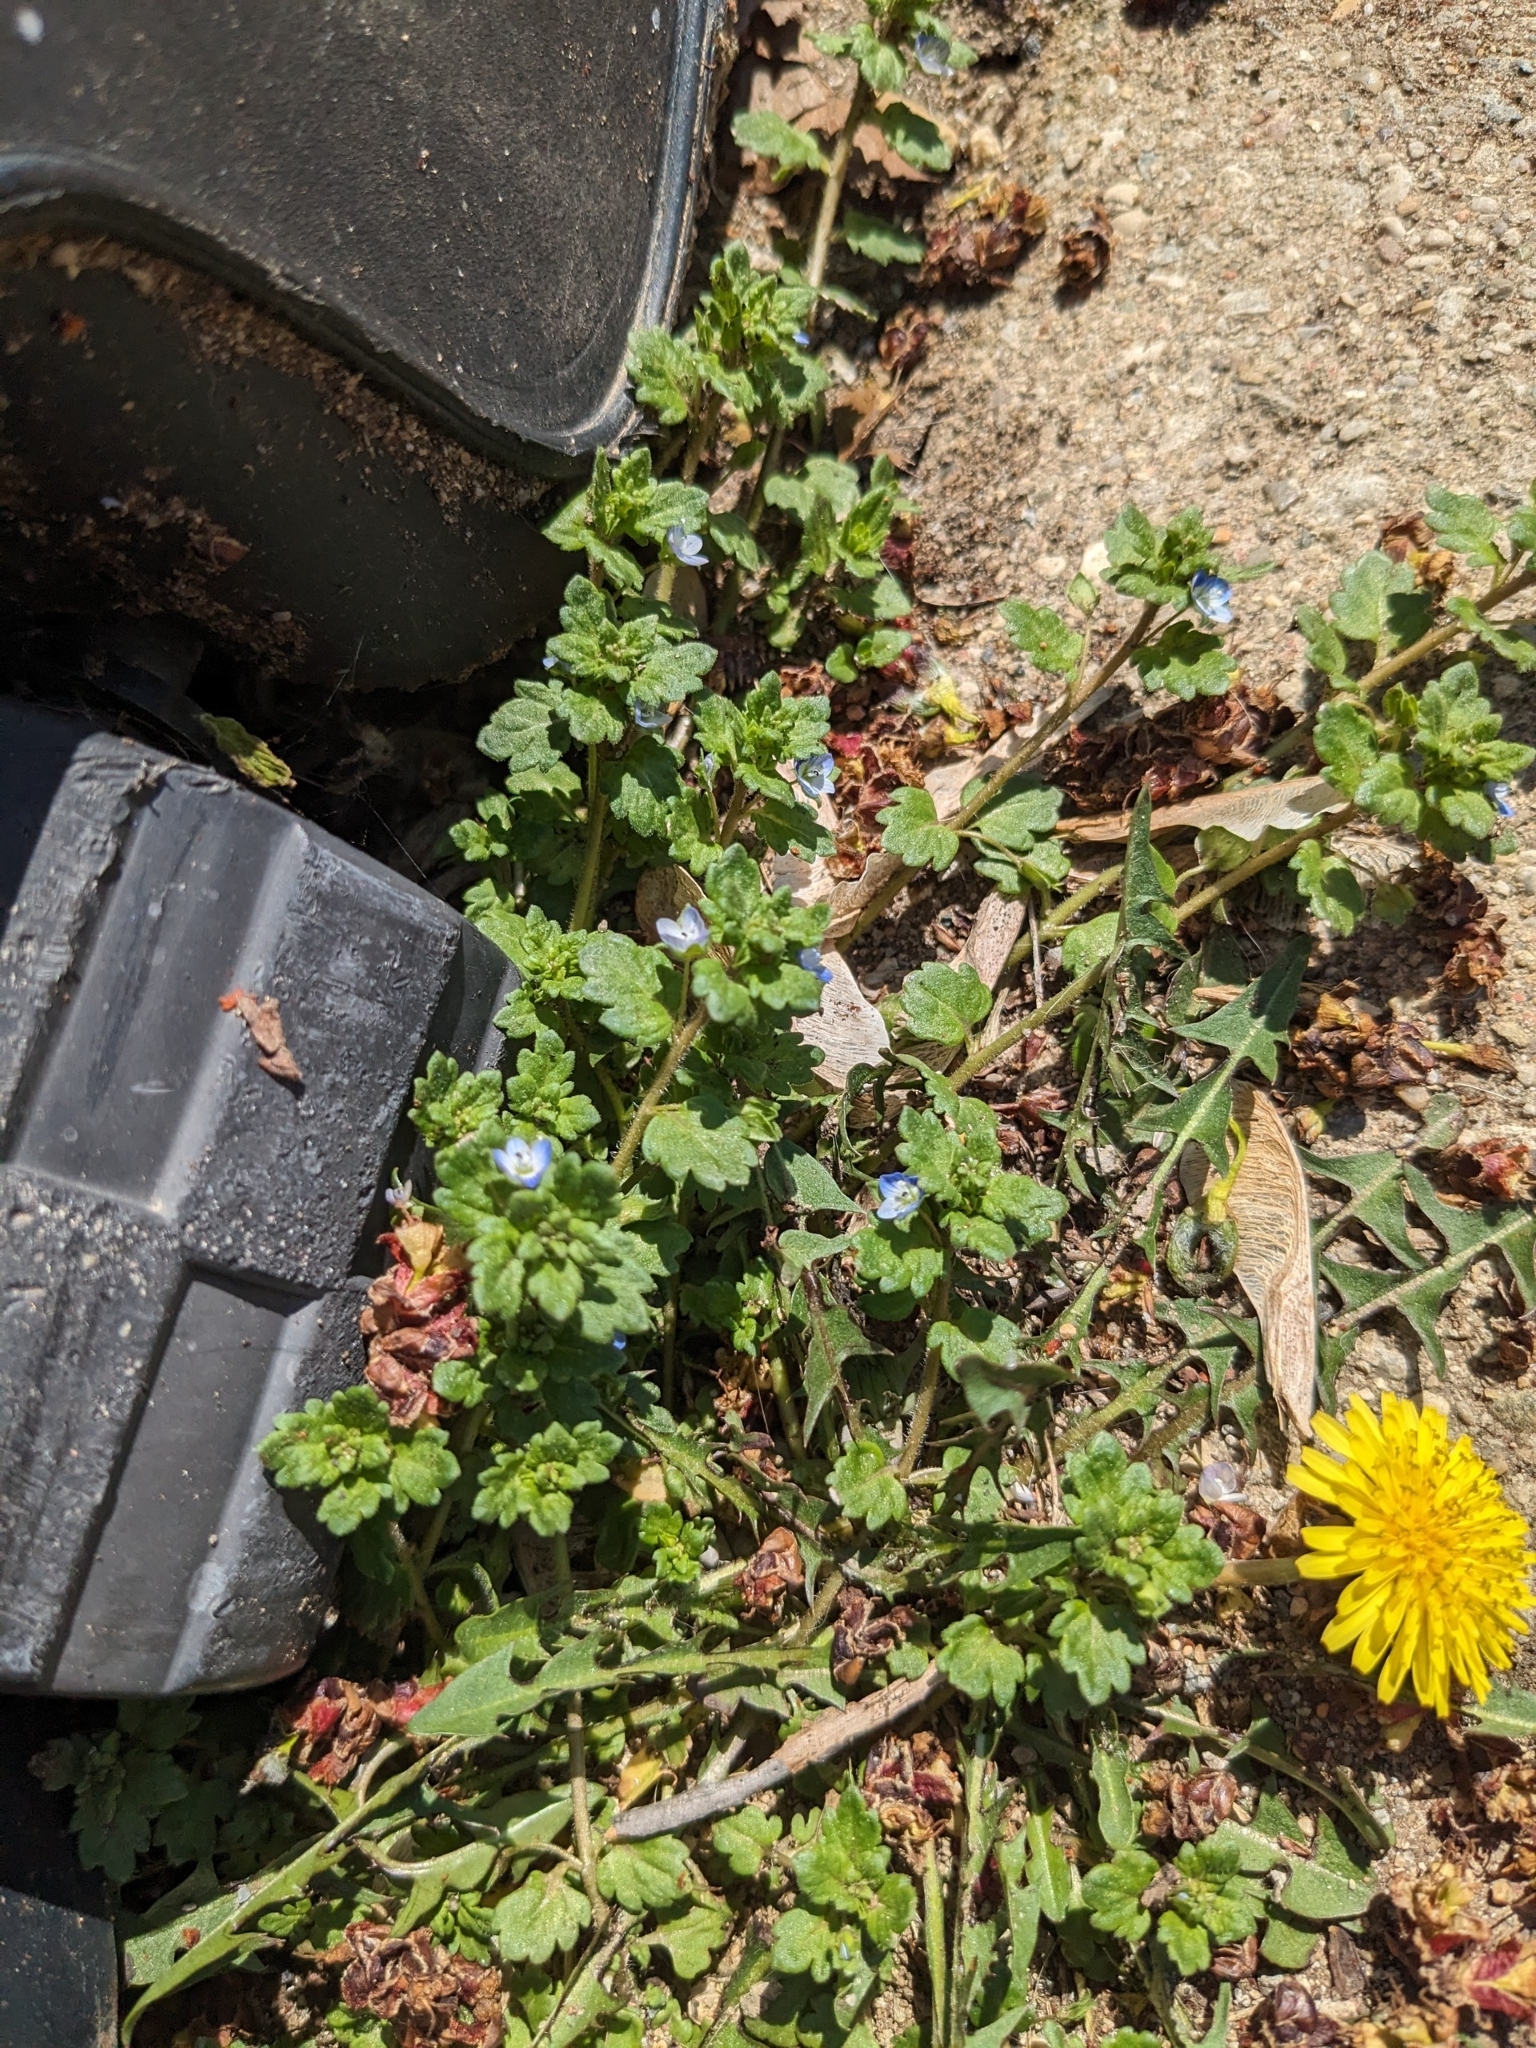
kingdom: Plantae
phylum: Tracheophyta
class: Magnoliopsida
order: Lamiales
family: Plantaginaceae
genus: Veronica
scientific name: Veronica polita
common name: Grey field-speedwell
